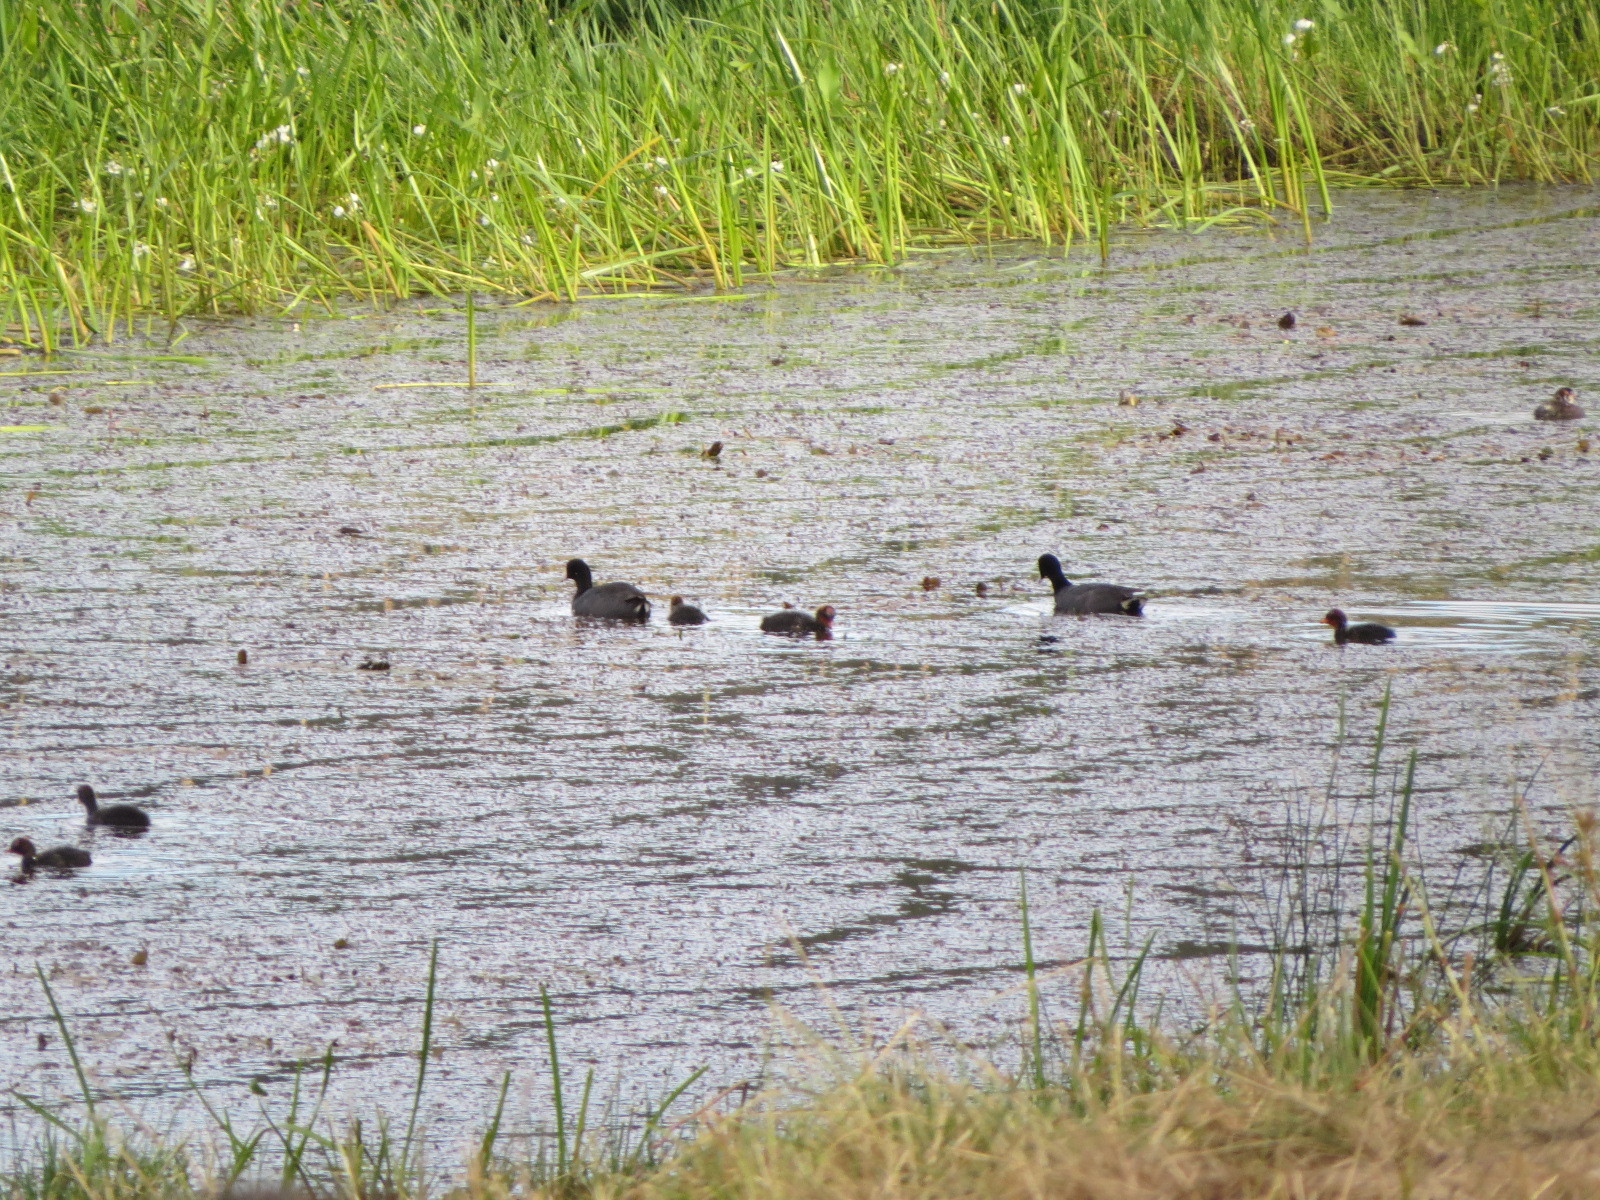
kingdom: Animalia
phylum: Chordata
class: Aves
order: Gruiformes
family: Rallidae
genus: Fulica
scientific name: Fulica americana
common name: American coot
